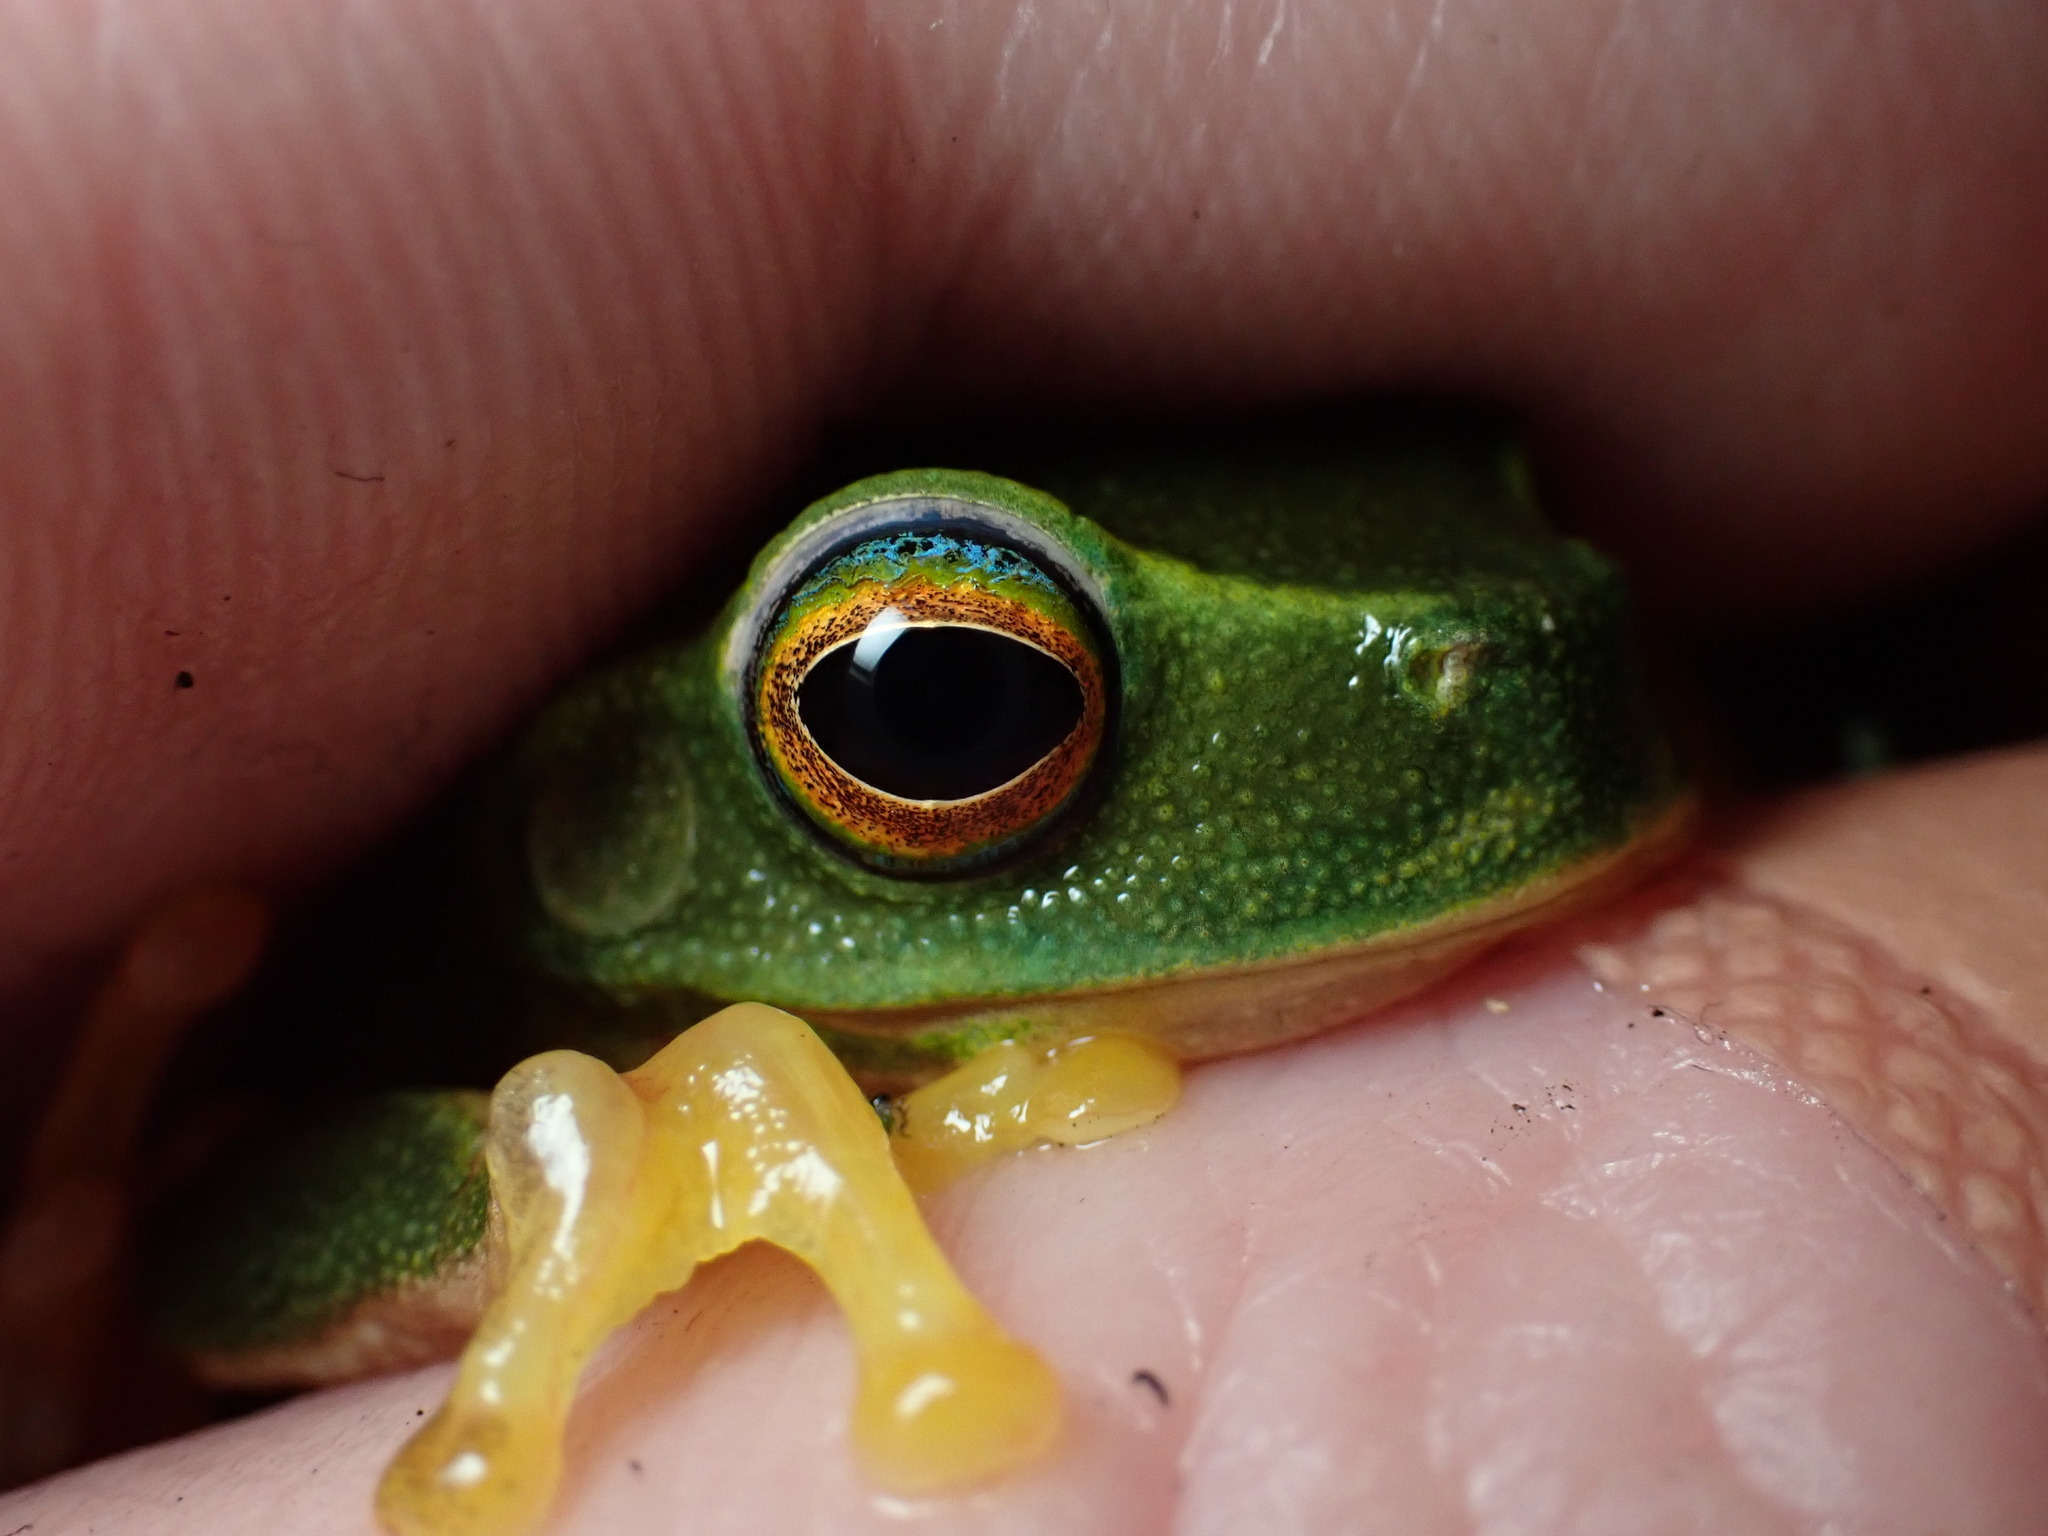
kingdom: Animalia
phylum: Chordata
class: Amphibia
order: Anura
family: Pelodryadidae
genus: Ranoidea
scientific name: Ranoidea gracilenta
